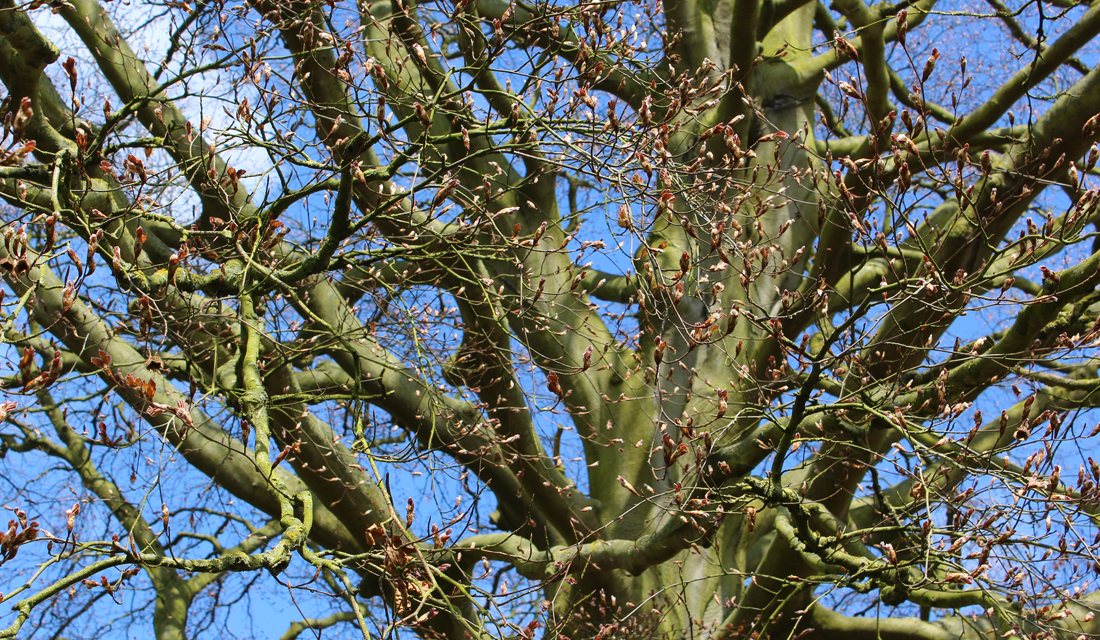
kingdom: Plantae
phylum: Tracheophyta
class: Magnoliopsida
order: Fagales
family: Fagaceae
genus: Fagus
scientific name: Fagus sylvatica
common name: Beech
